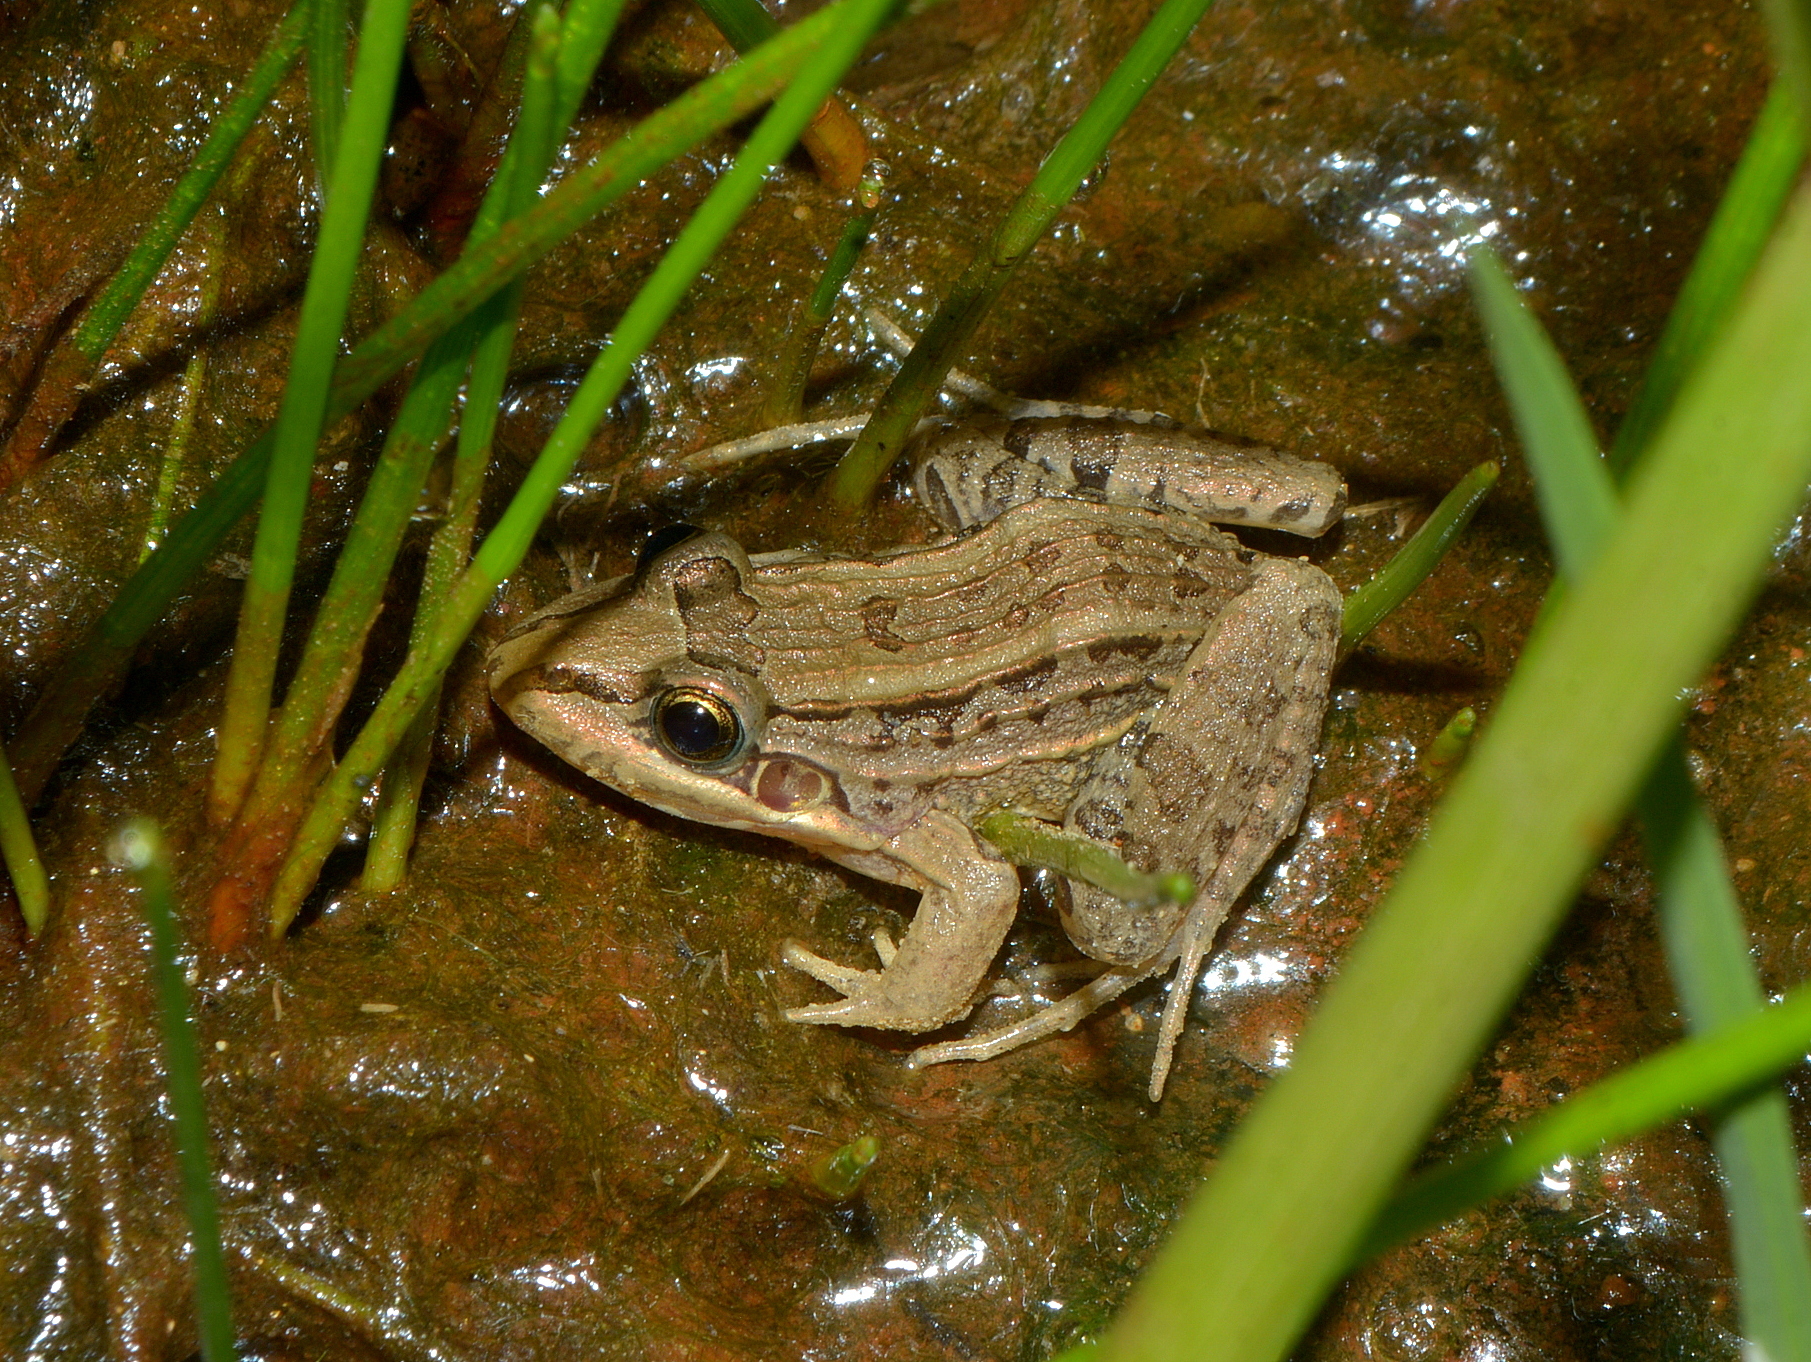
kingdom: Animalia
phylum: Chordata
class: Amphibia
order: Anura
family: Leptodactylidae
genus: Leptodactylus
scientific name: Leptodactylus paranaru
